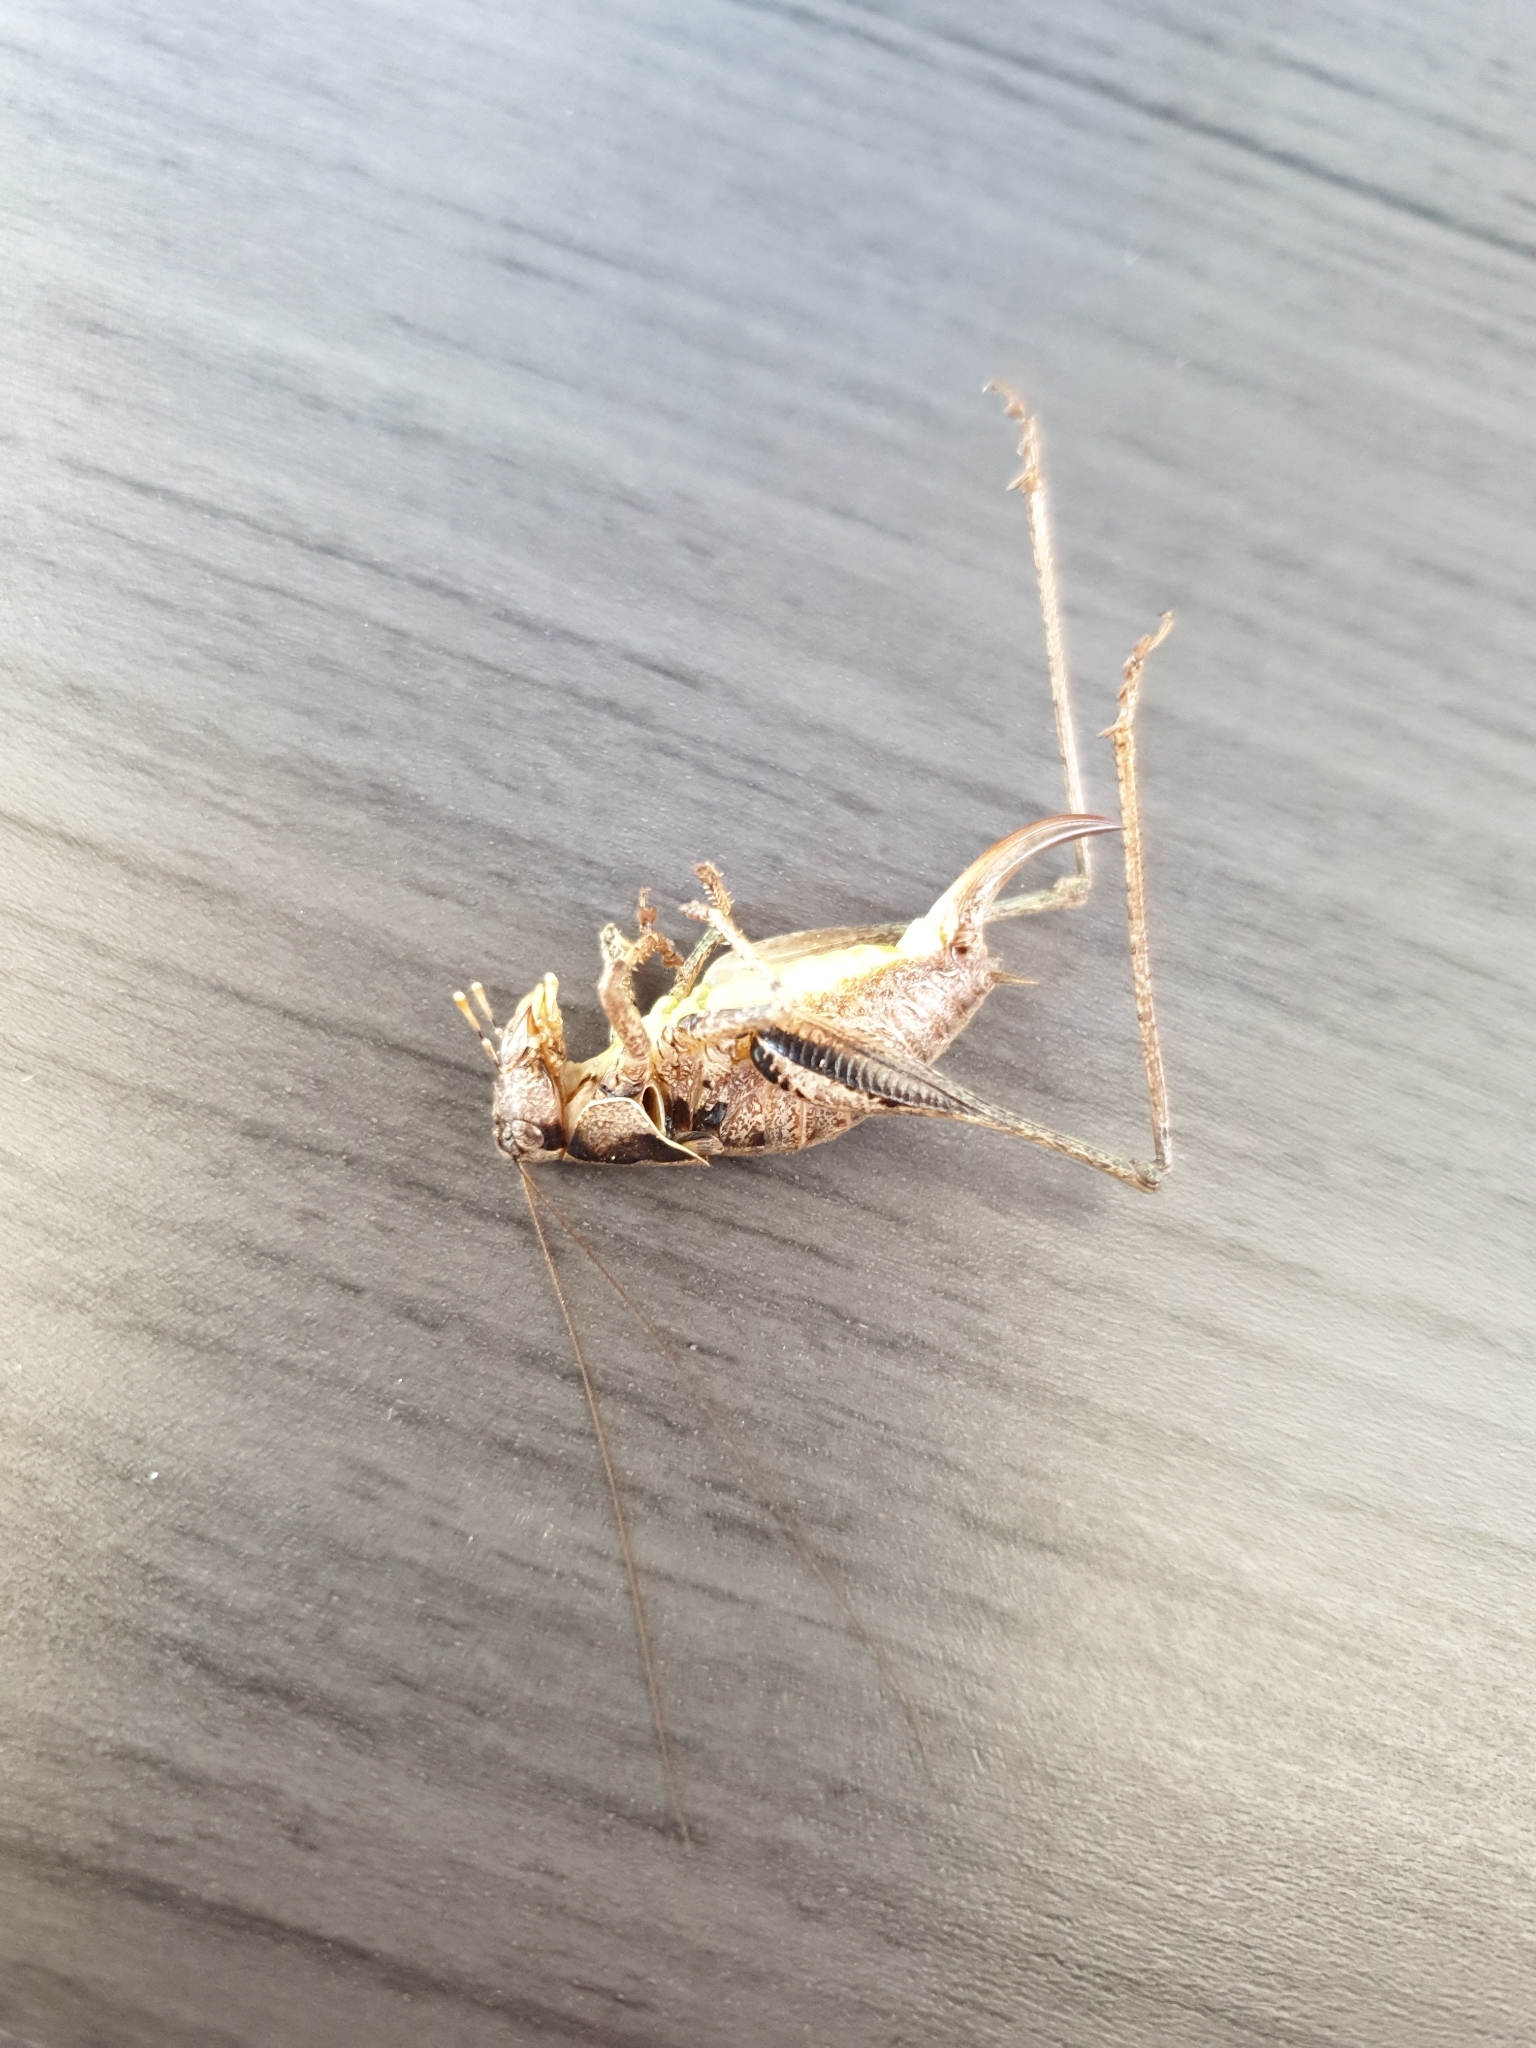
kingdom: Animalia
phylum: Arthropoda
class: Insecta
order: Orthoptera
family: Tettigoniidae
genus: Pholidoptera
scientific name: Pholidoptera griseoaptera
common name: Dark bush-cricket
